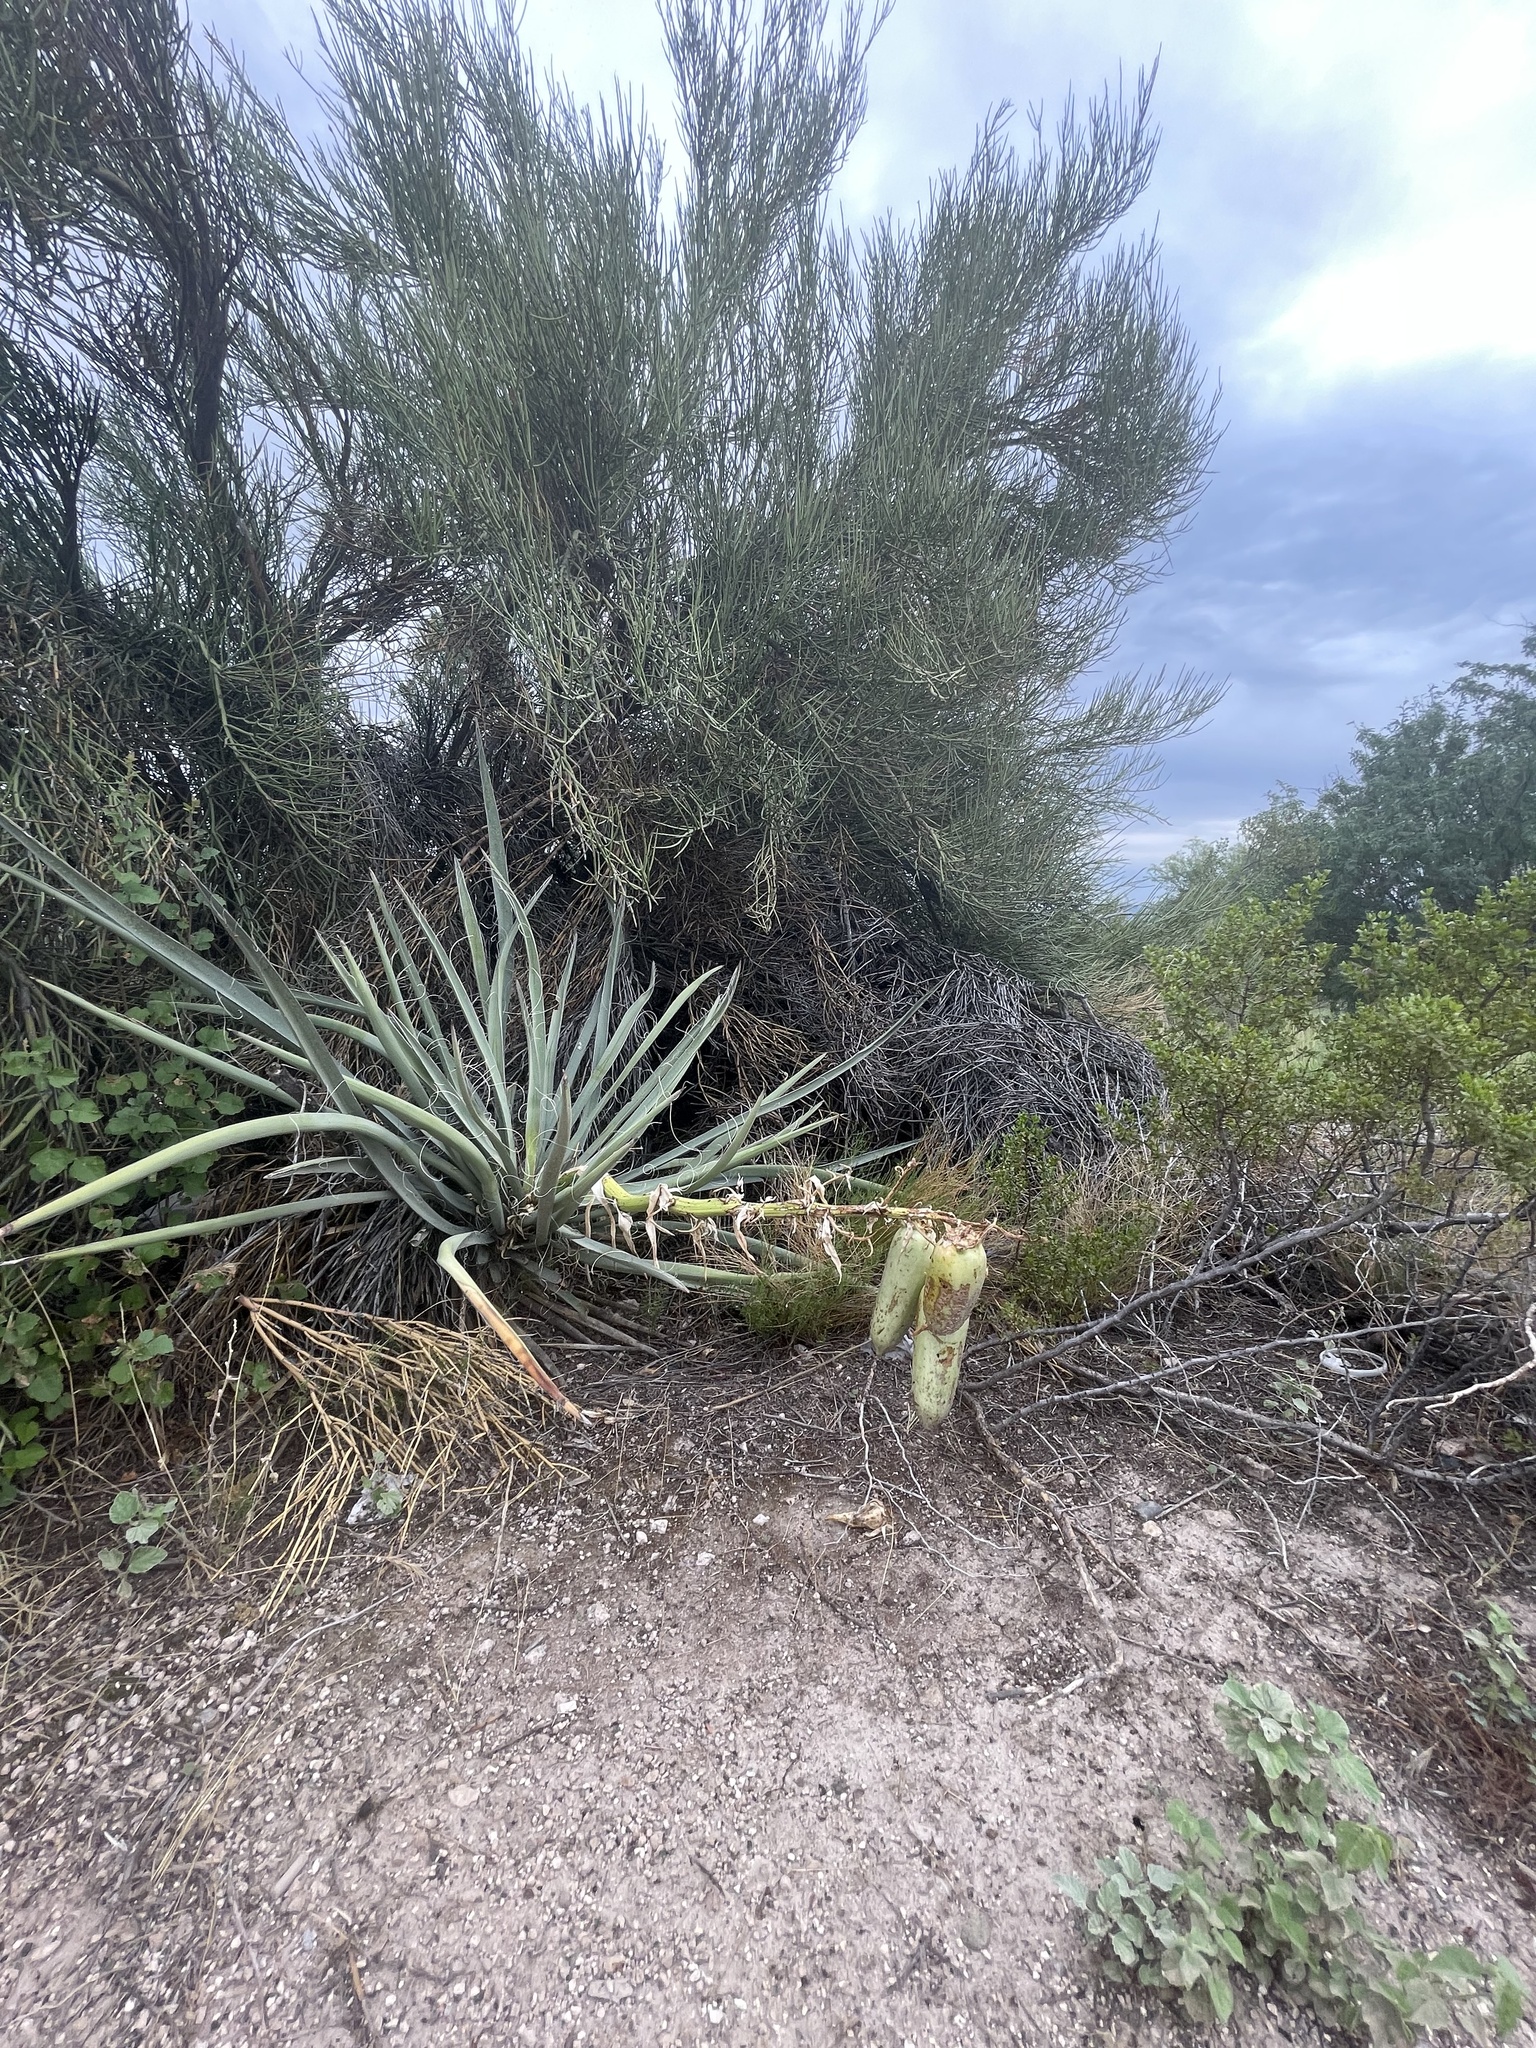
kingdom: Plantae
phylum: Tracheophyta
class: Liliopsida
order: Asparagales
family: Asparagaceae
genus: Yucca
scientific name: Yucca baccata
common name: Banana yucca
